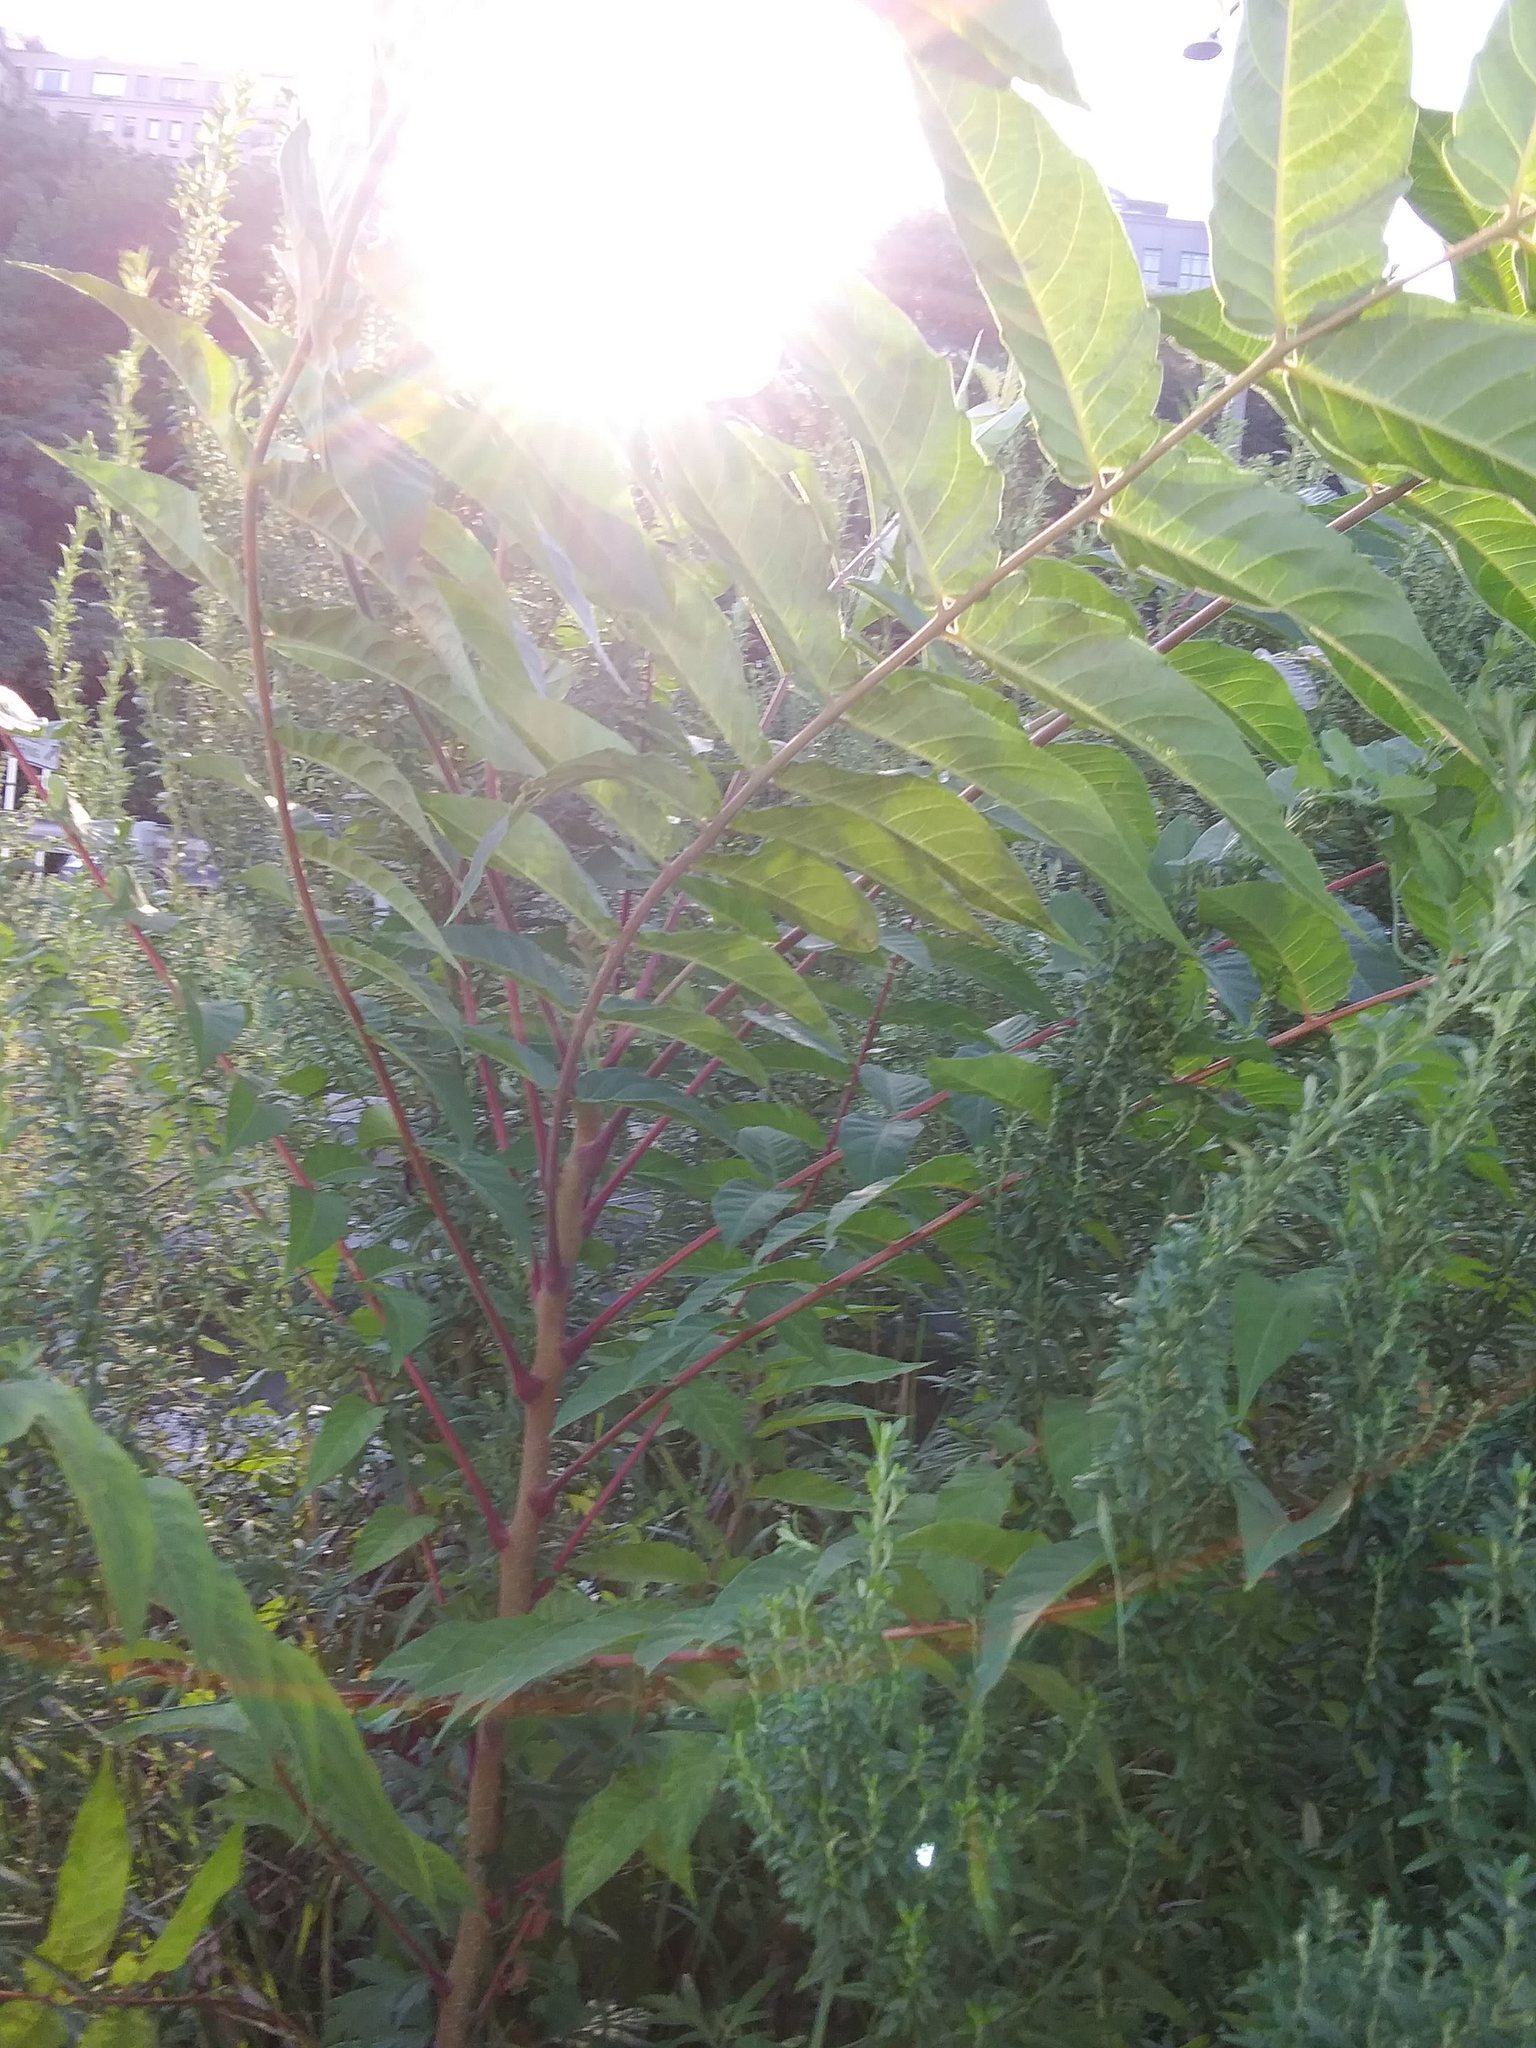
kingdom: Plantae
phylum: Tracheophyta
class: Magnoliopsida
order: Sapindales
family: Simaroubaceae
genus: Ailanthus
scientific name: Ailanthus altissima
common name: Tree-of-heaven
